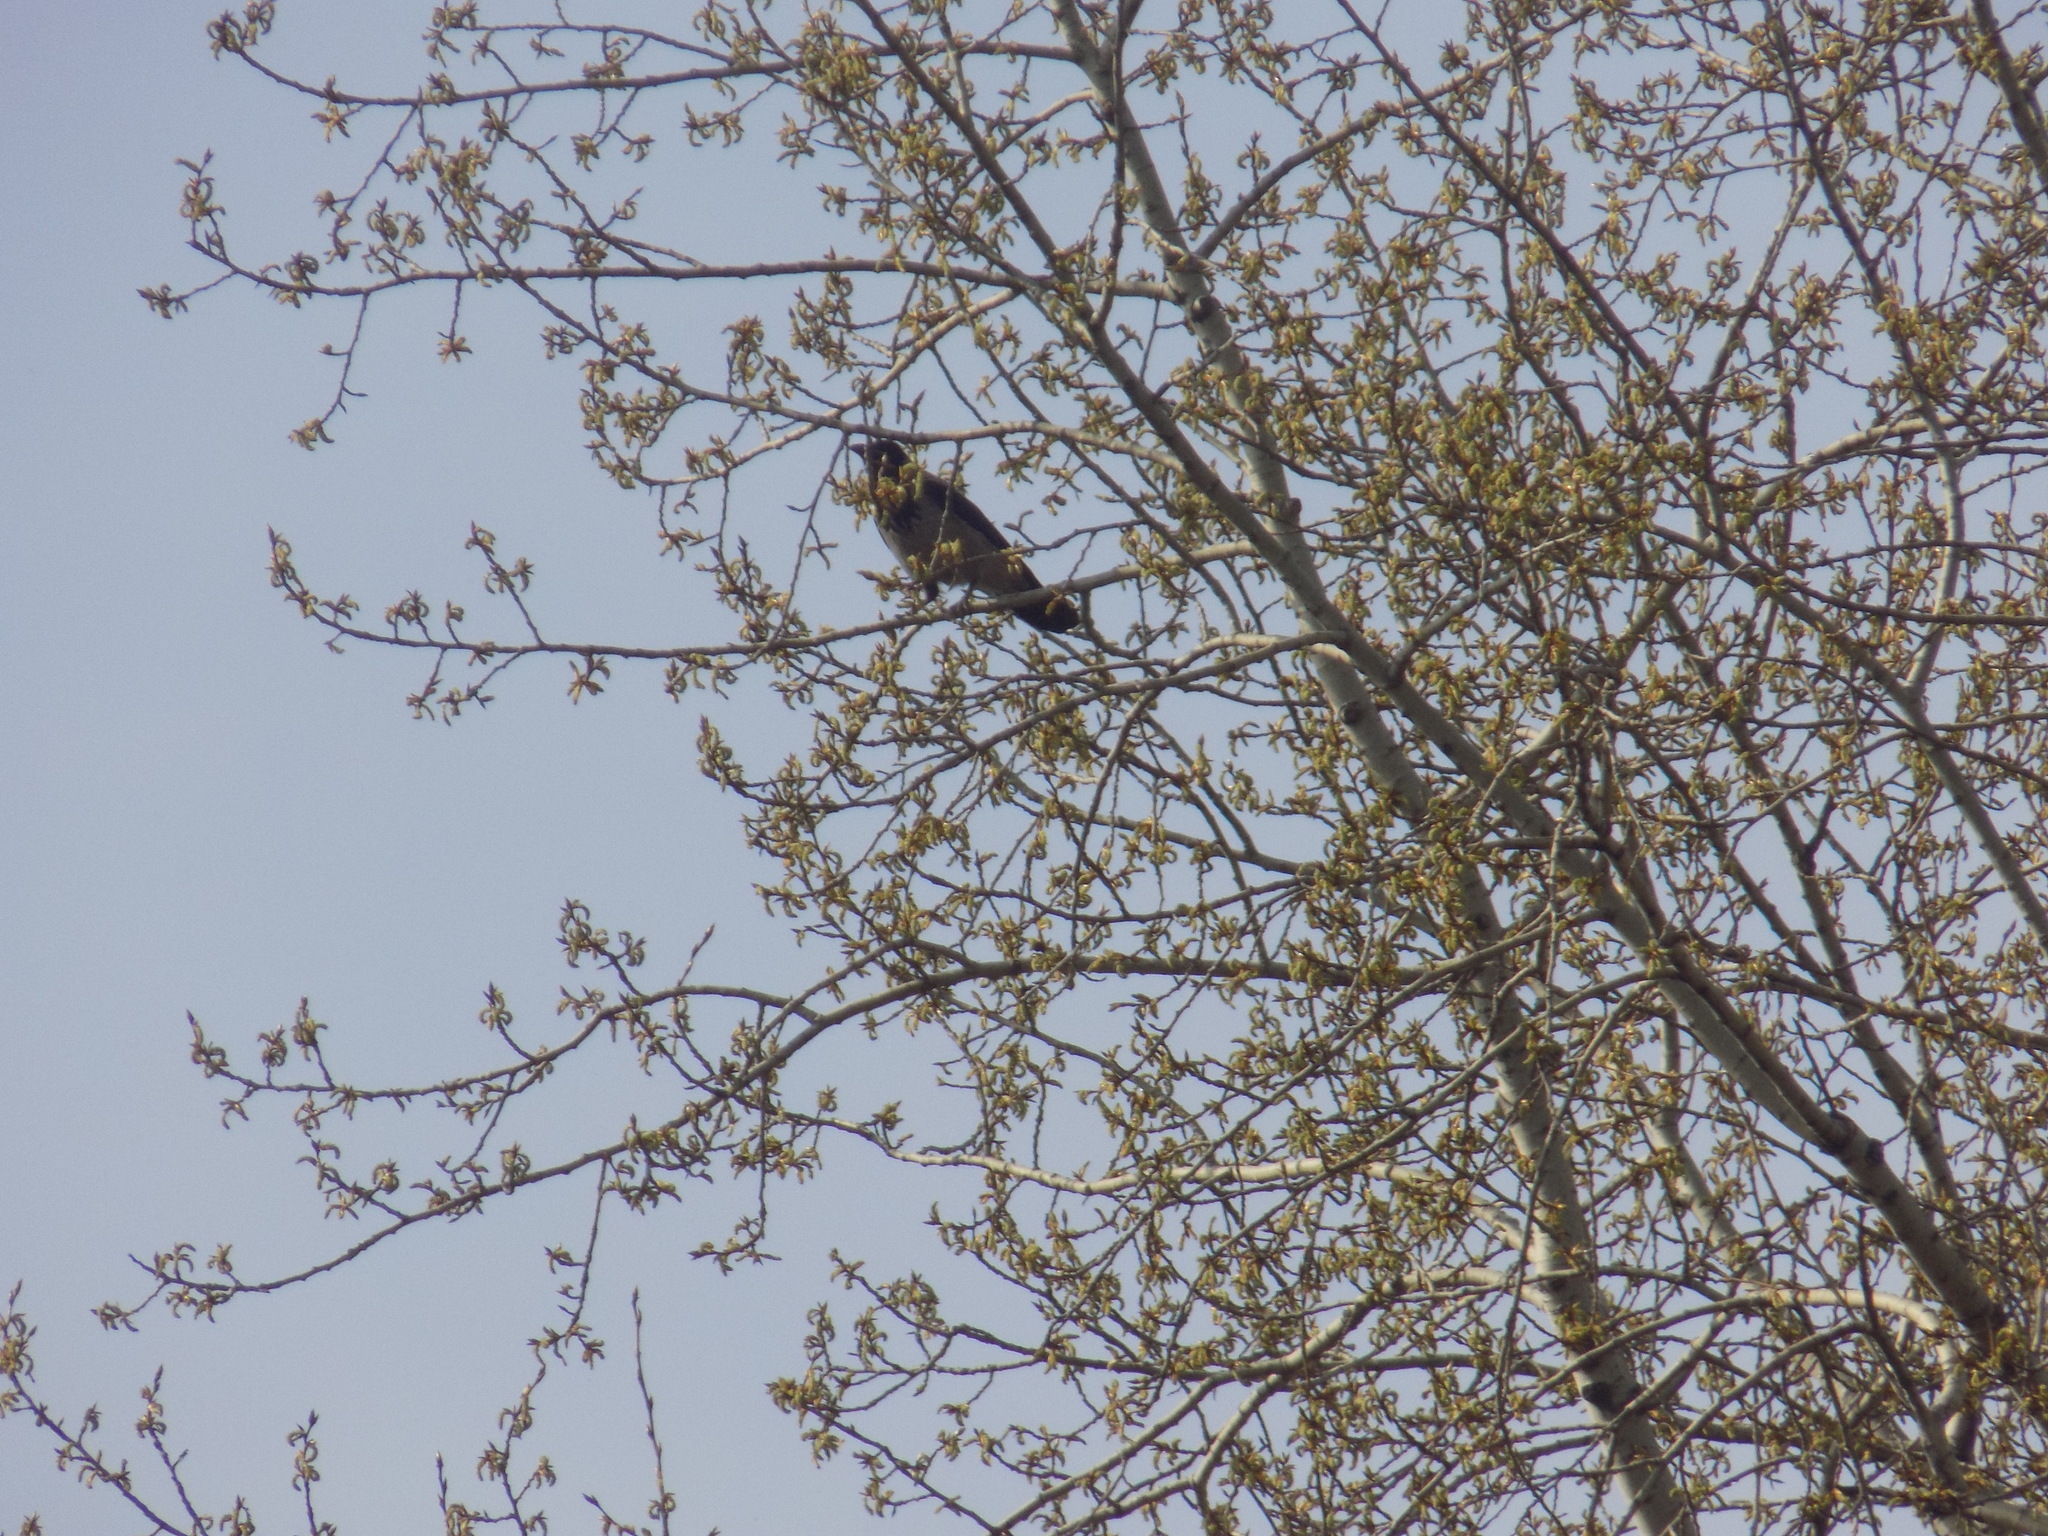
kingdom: Animalia
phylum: Chordata
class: Aves
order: Passeriformes
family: Corvidae
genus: Corvus
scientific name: Corvus cornix
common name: Hooded crow
